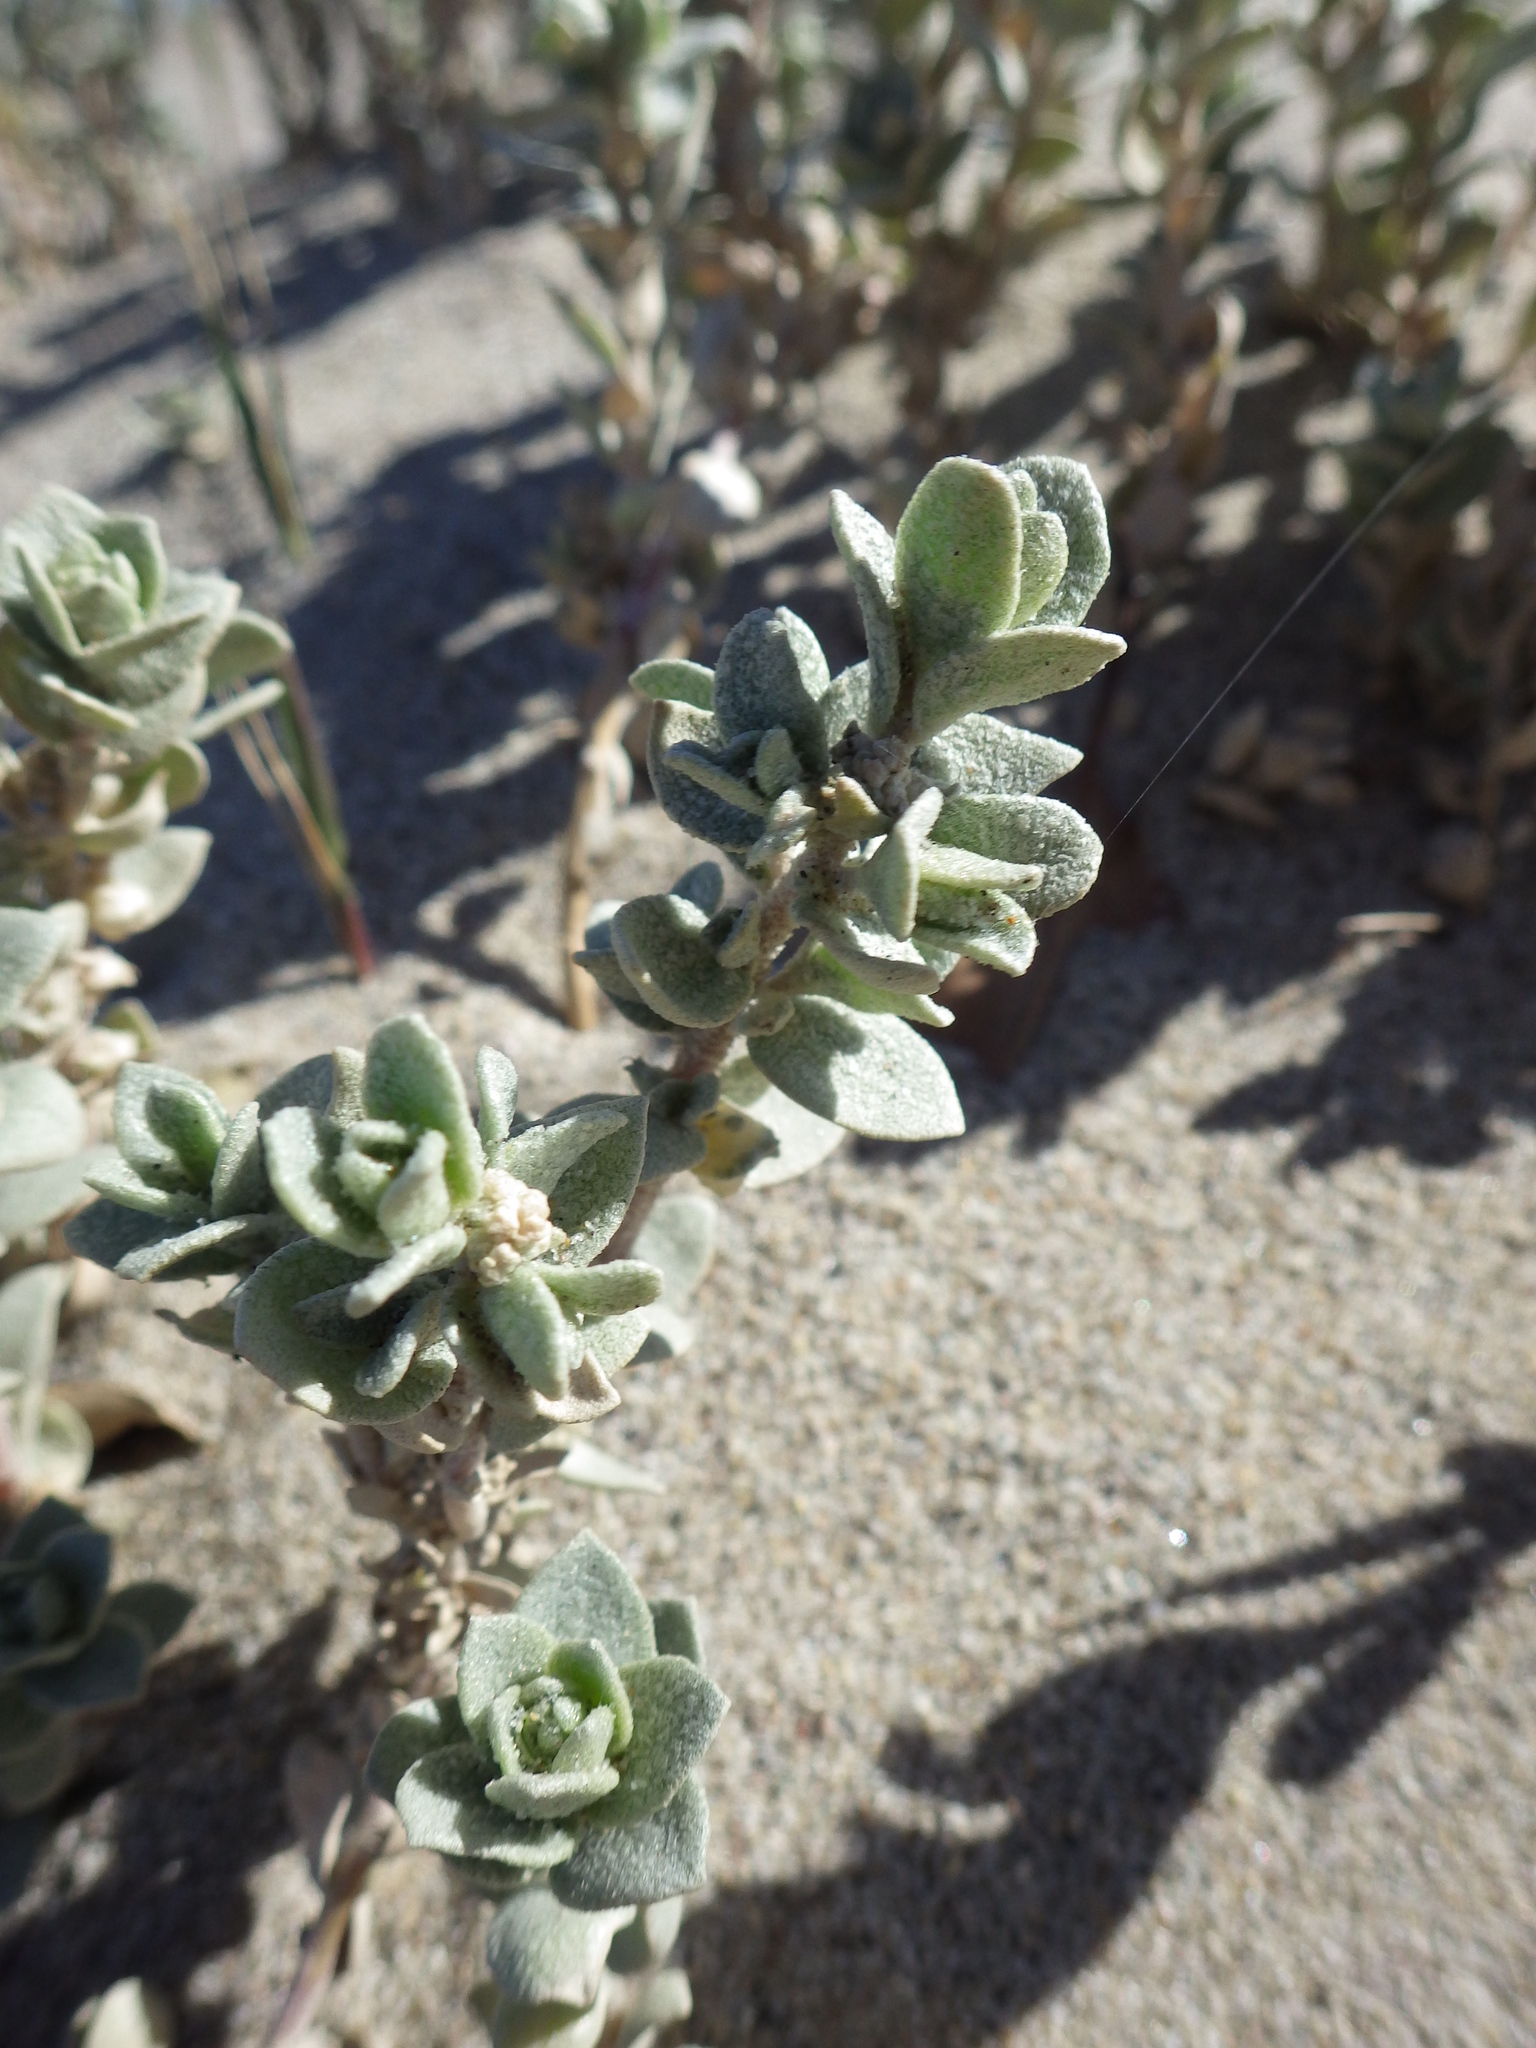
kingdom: Plantae
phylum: Tracheophyta
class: Magnoliopsida
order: Caryophyllales
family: Amaranthaceae
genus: Atriplex
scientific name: Atriplex leucophylla
